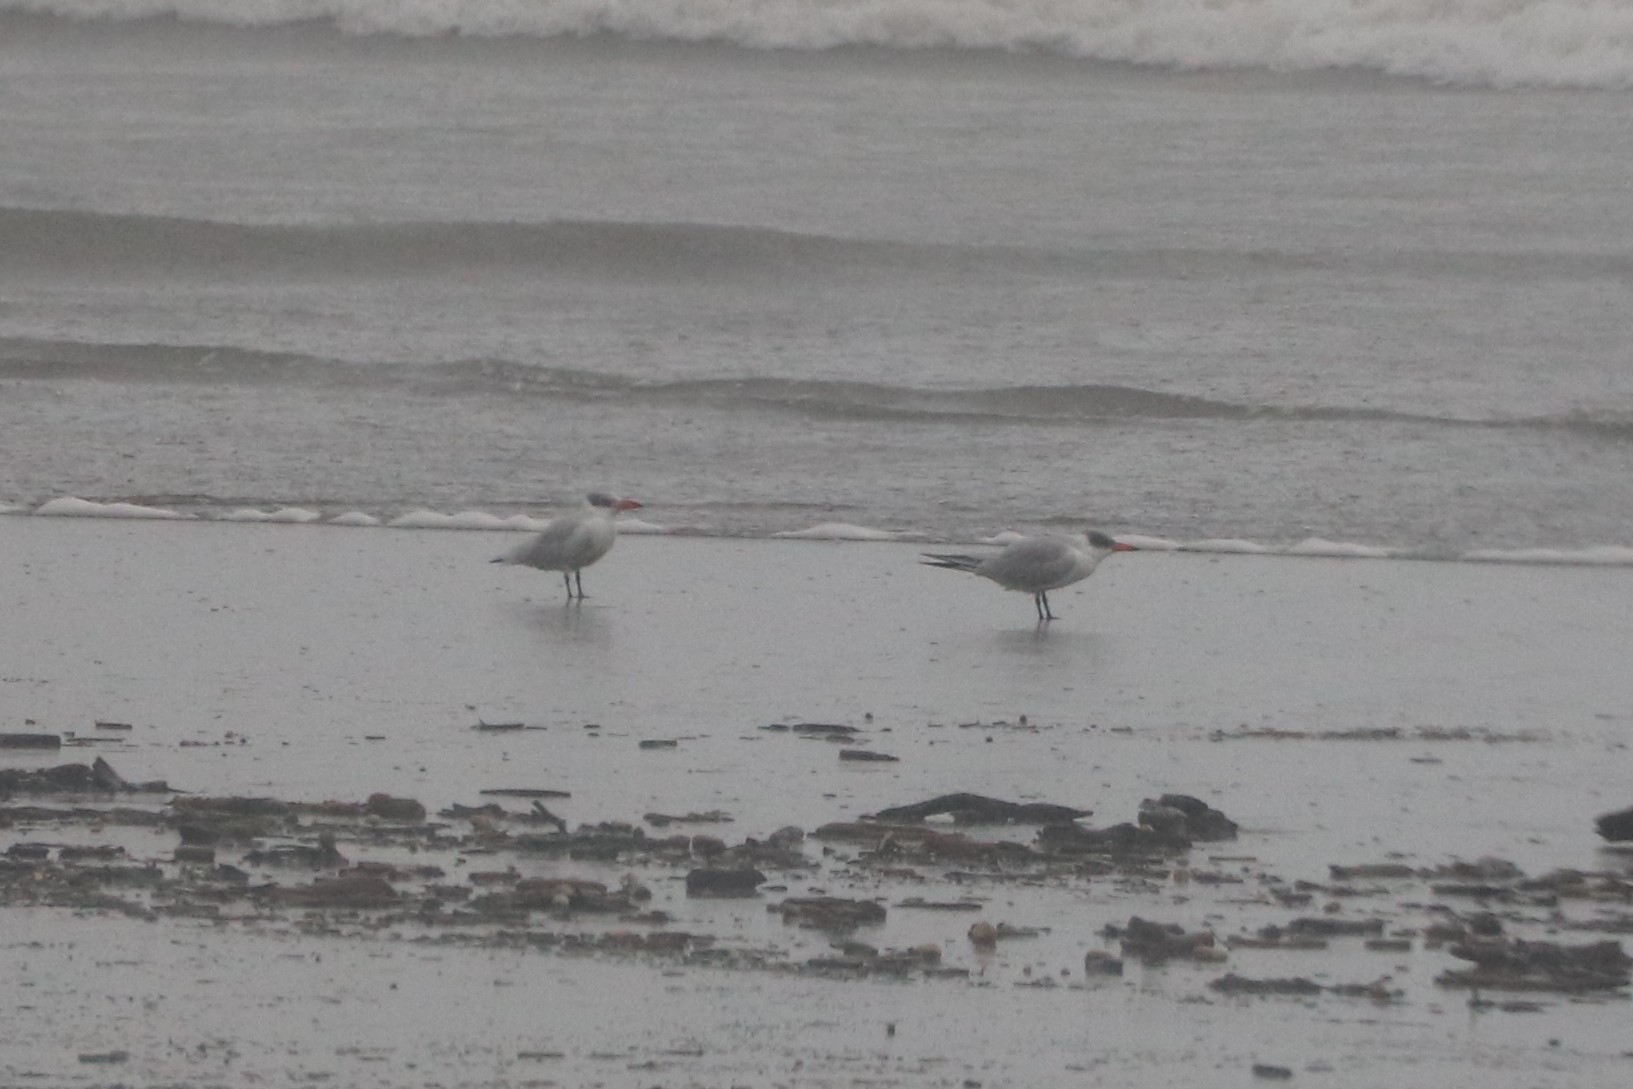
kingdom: Animalia
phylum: Chordata
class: Aves
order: Charadriiformes
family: Laridae
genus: Hydroprogne
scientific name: Hydroprogne caspia
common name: Caspian tern
